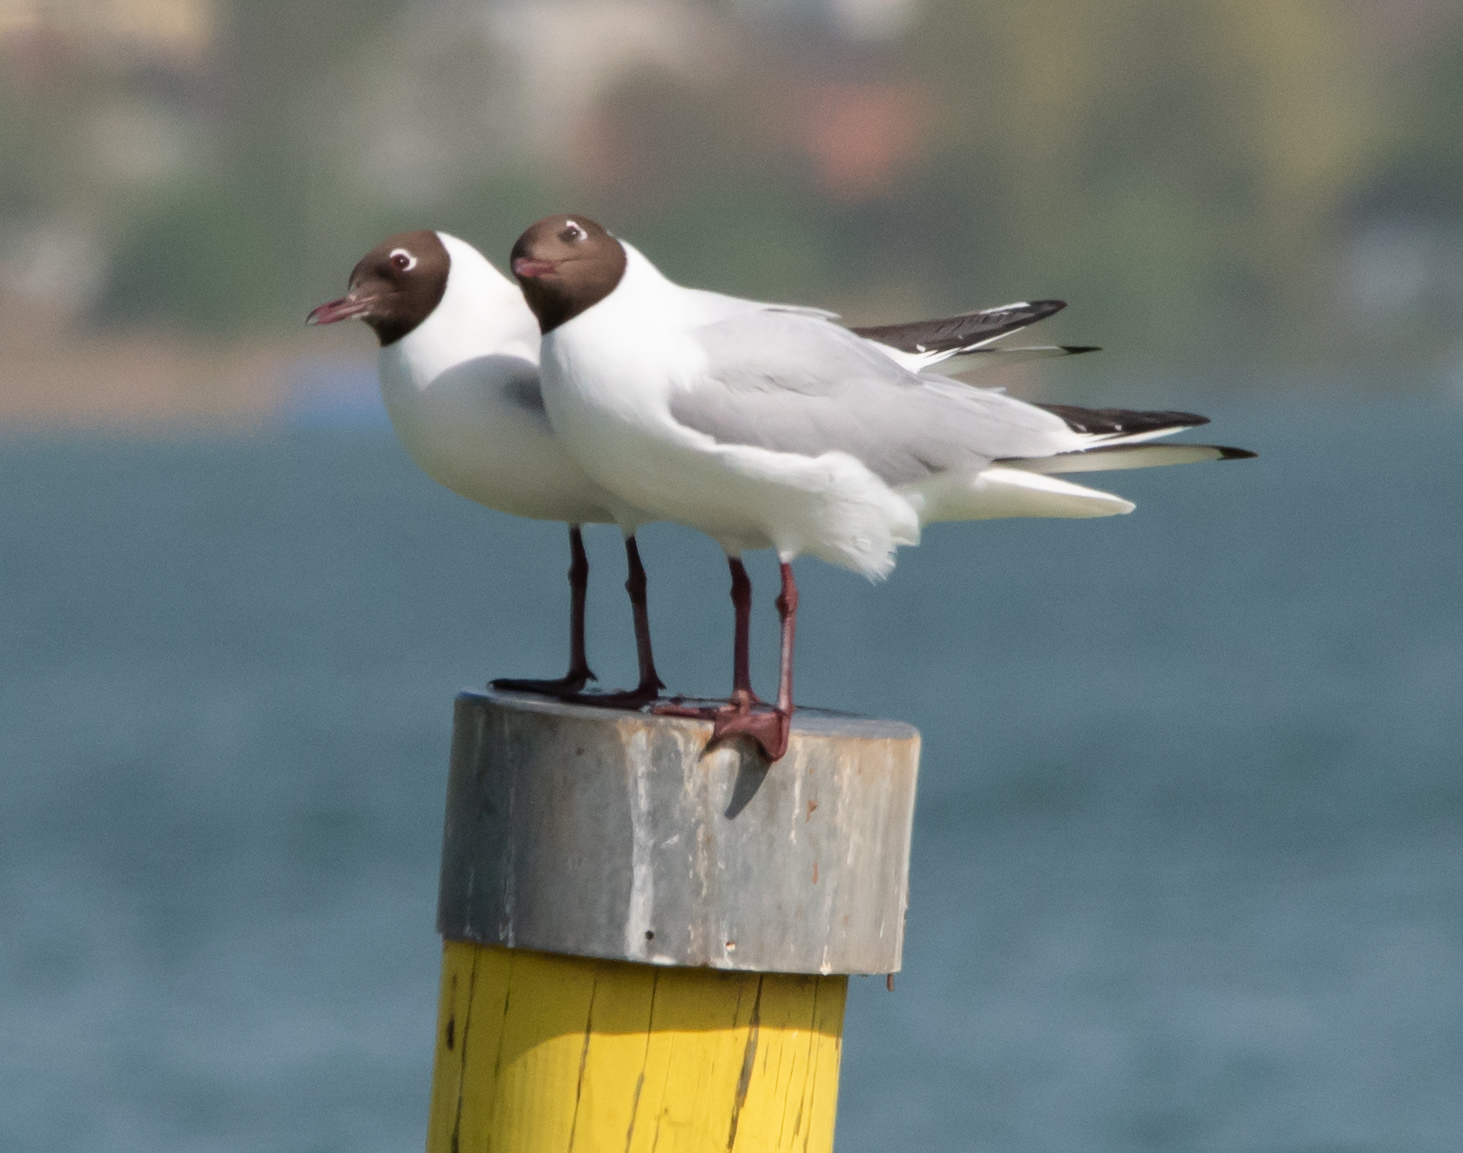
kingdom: Animalia
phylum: Chordata
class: Aves
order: Charadriiformes
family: Laridae
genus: Chroicocephalus
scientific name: Chroicocephalus ridibundus
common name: Black-headed gull
